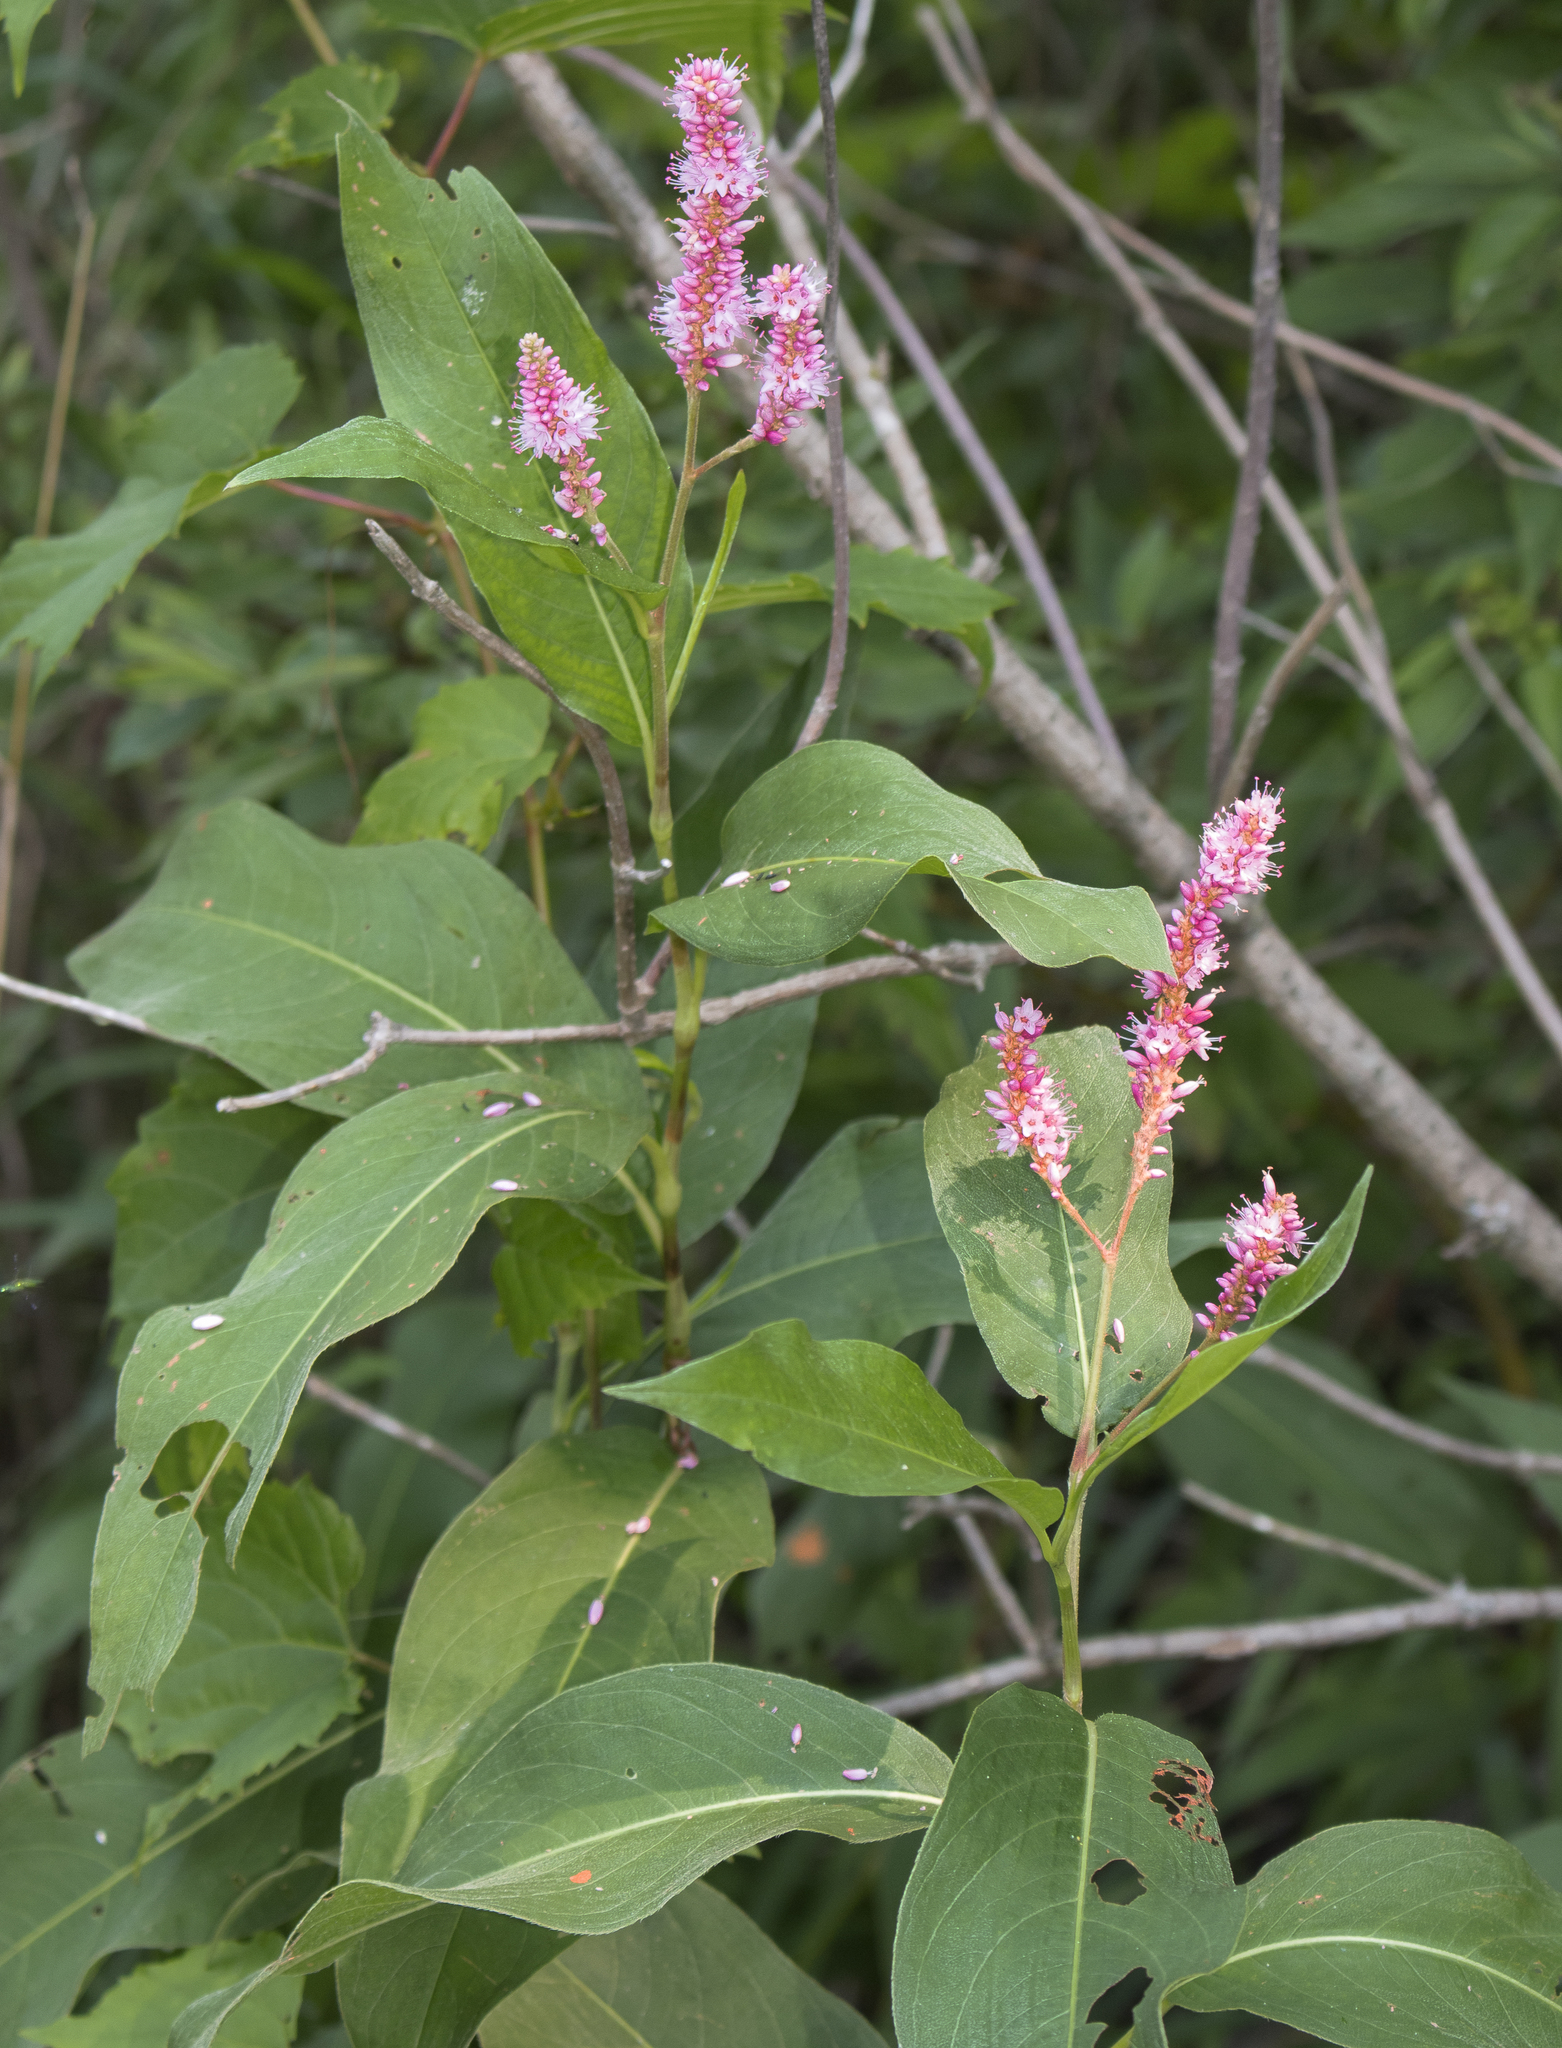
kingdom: Plantae
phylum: Tracheophyta
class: Magnoliopsida
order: Caryophyllales
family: Polygonaceae
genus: Persicaria
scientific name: Persicaria amphibia
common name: Amphibious bistort
